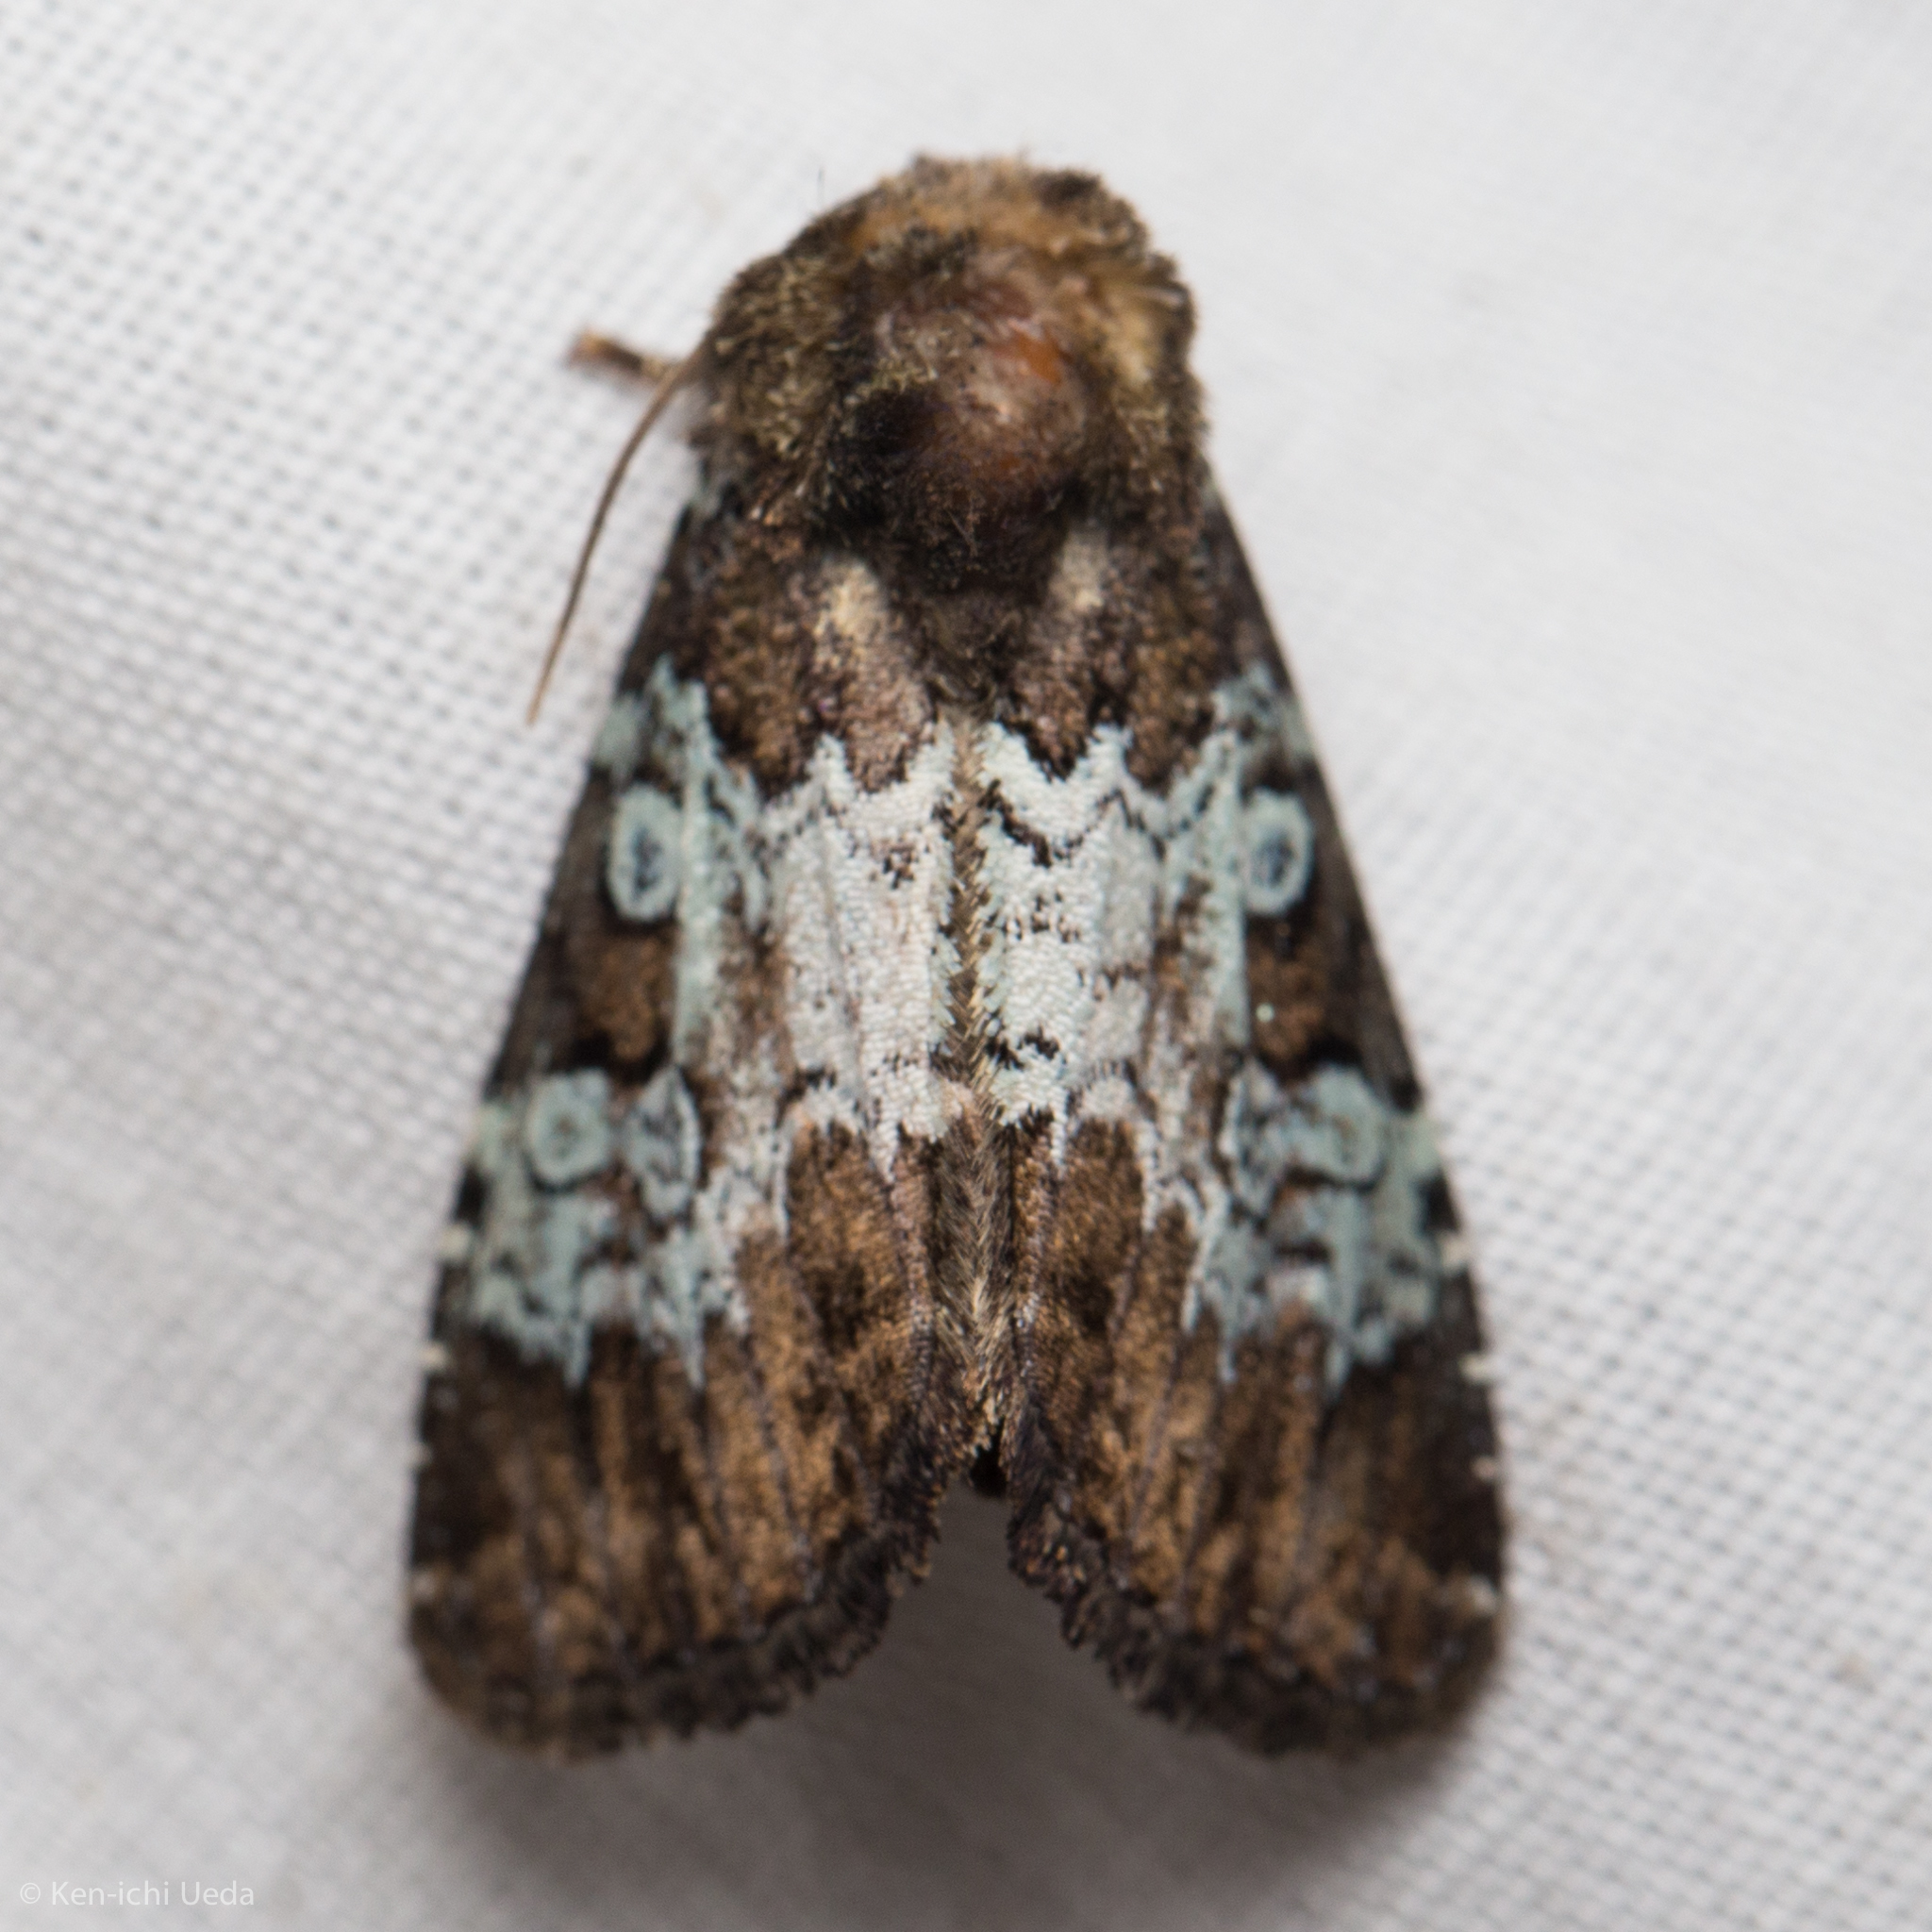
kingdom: Animalia
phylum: Arthropoda
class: Insecta
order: Lepidoptera
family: Noctuidae
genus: Euamiana
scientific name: Euamiana contrasta
